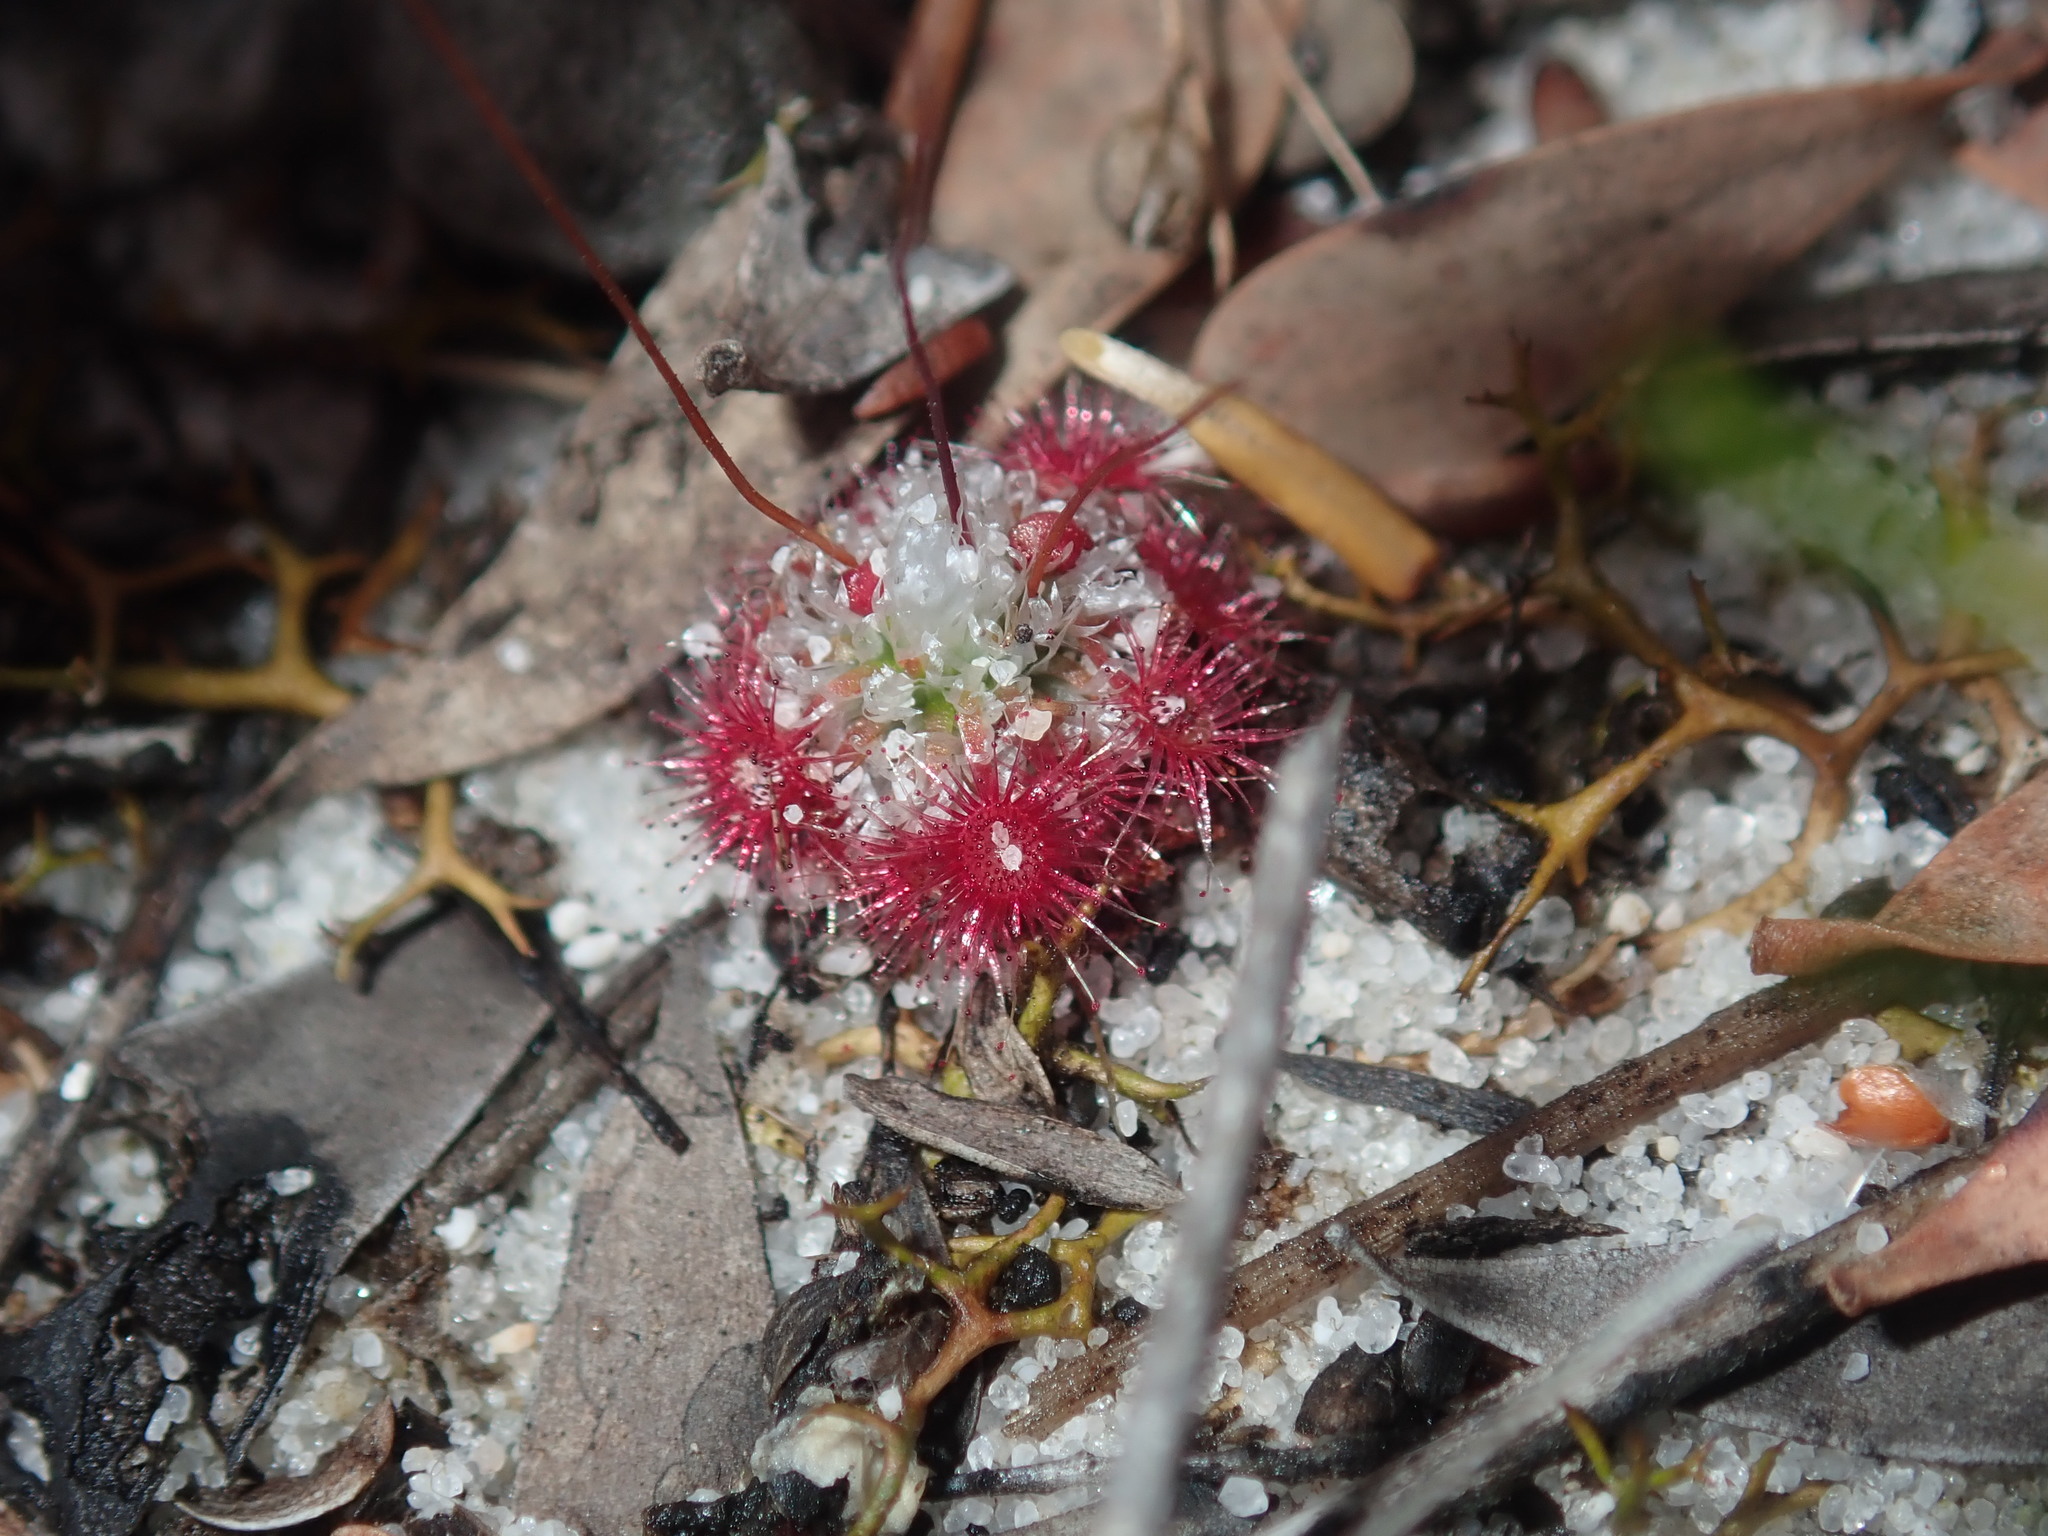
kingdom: Plantae
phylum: Tracheophyta
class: Magnoliopsida
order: Caryophyllales
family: Droseraceae
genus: Drosera
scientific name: Drosera pygmaea
